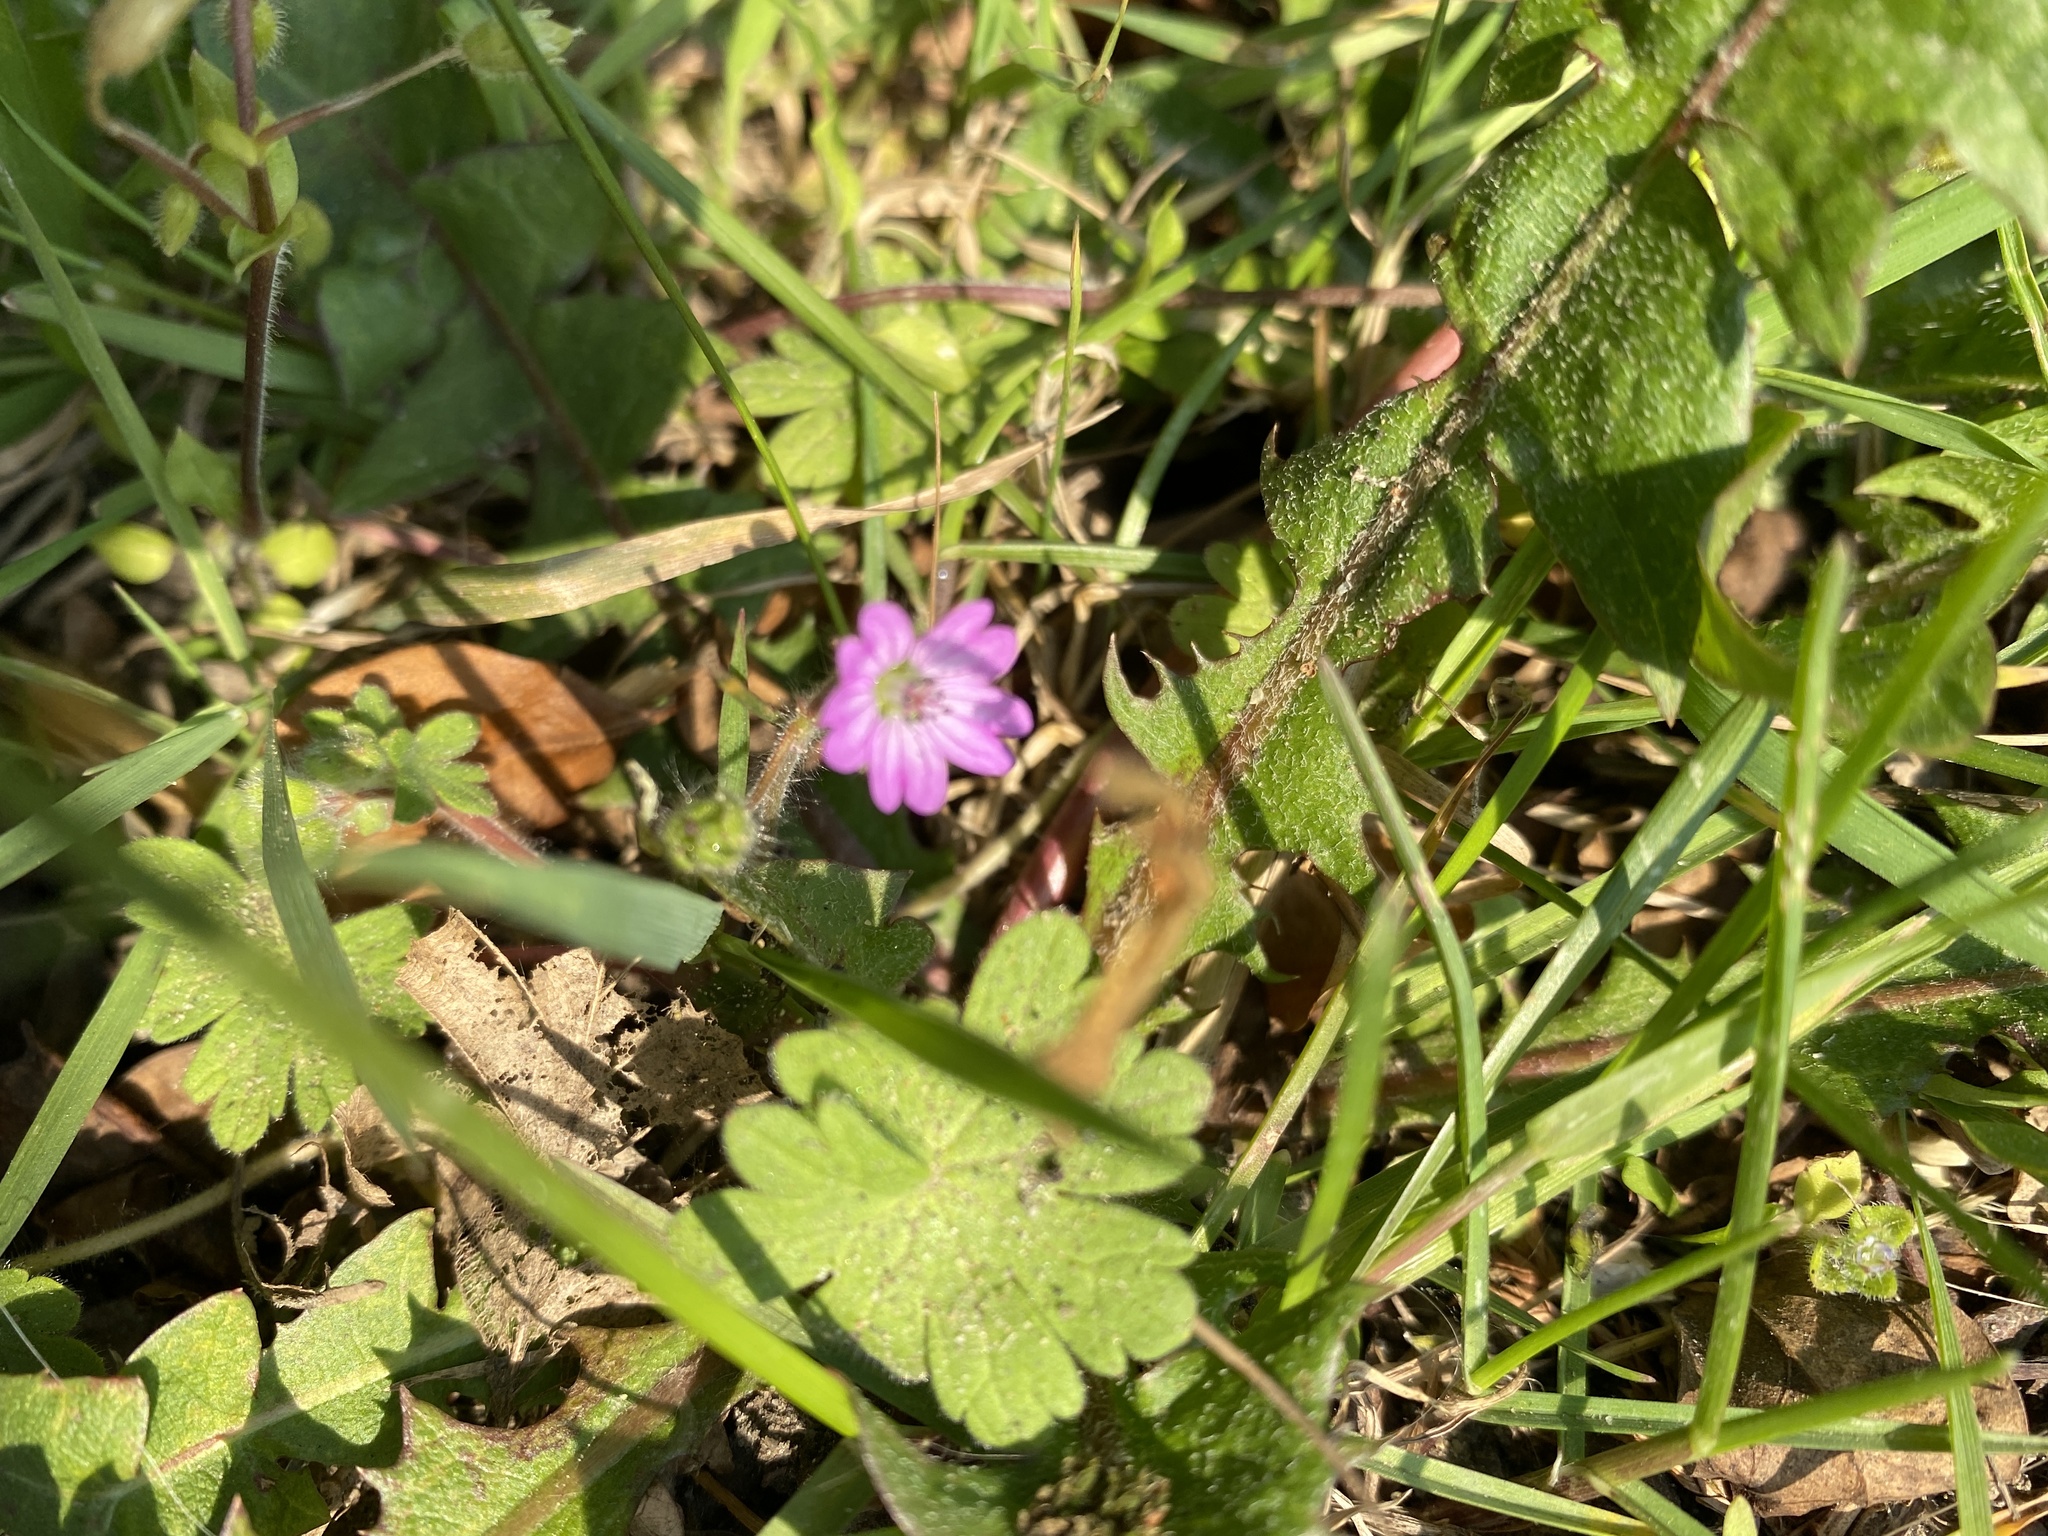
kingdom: Plantae
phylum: Tracheophyta
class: Magnoliopsida
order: Geraniales
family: Geraniaceae
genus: Geranium
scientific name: Geranium molle
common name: Dove's-foot crane's-bill
